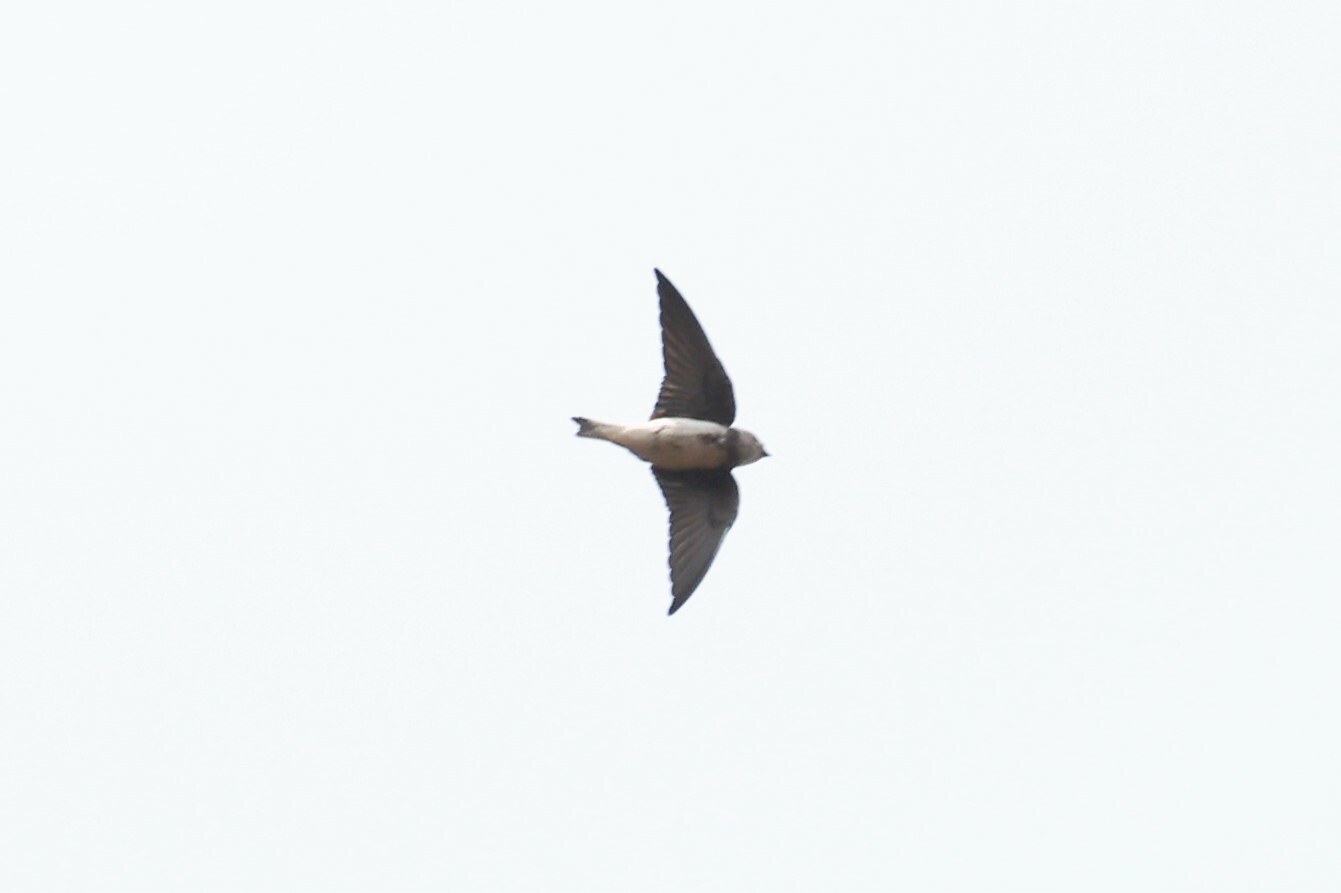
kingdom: Animalia
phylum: Chordata
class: Aves
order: Passeriformes
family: Hirundinidae
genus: Riparia
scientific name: Riparia riparia
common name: Sand martin
